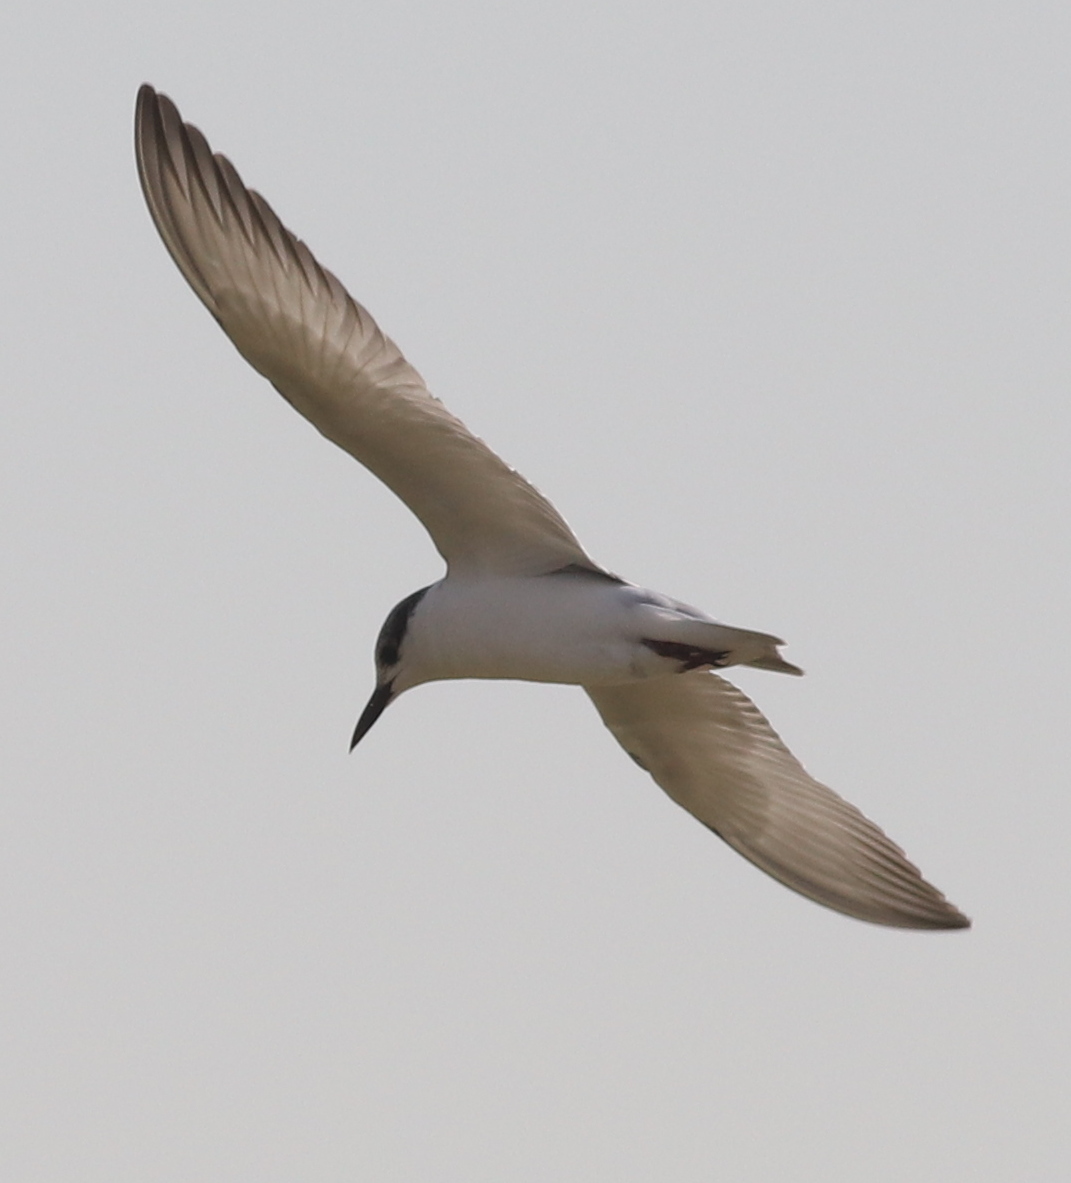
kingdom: Animalia
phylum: Chordata
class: Aves
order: Charadriiformes
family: Laridae
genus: Chlidonias
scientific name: Chlidonias hybrida
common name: Whiskered tern
